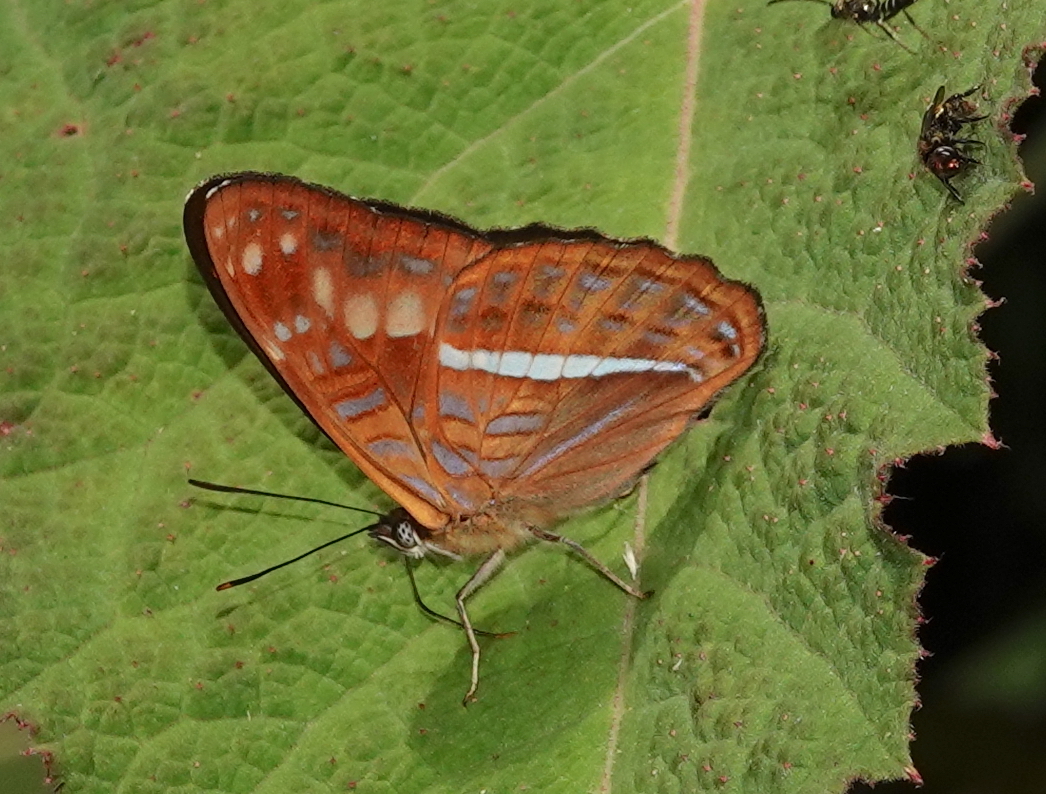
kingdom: Animalia
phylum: Arthropoda
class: Insecta
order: Lepidoptera
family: Nymphalidae
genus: Limenitis
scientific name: Limenitis olynthia
